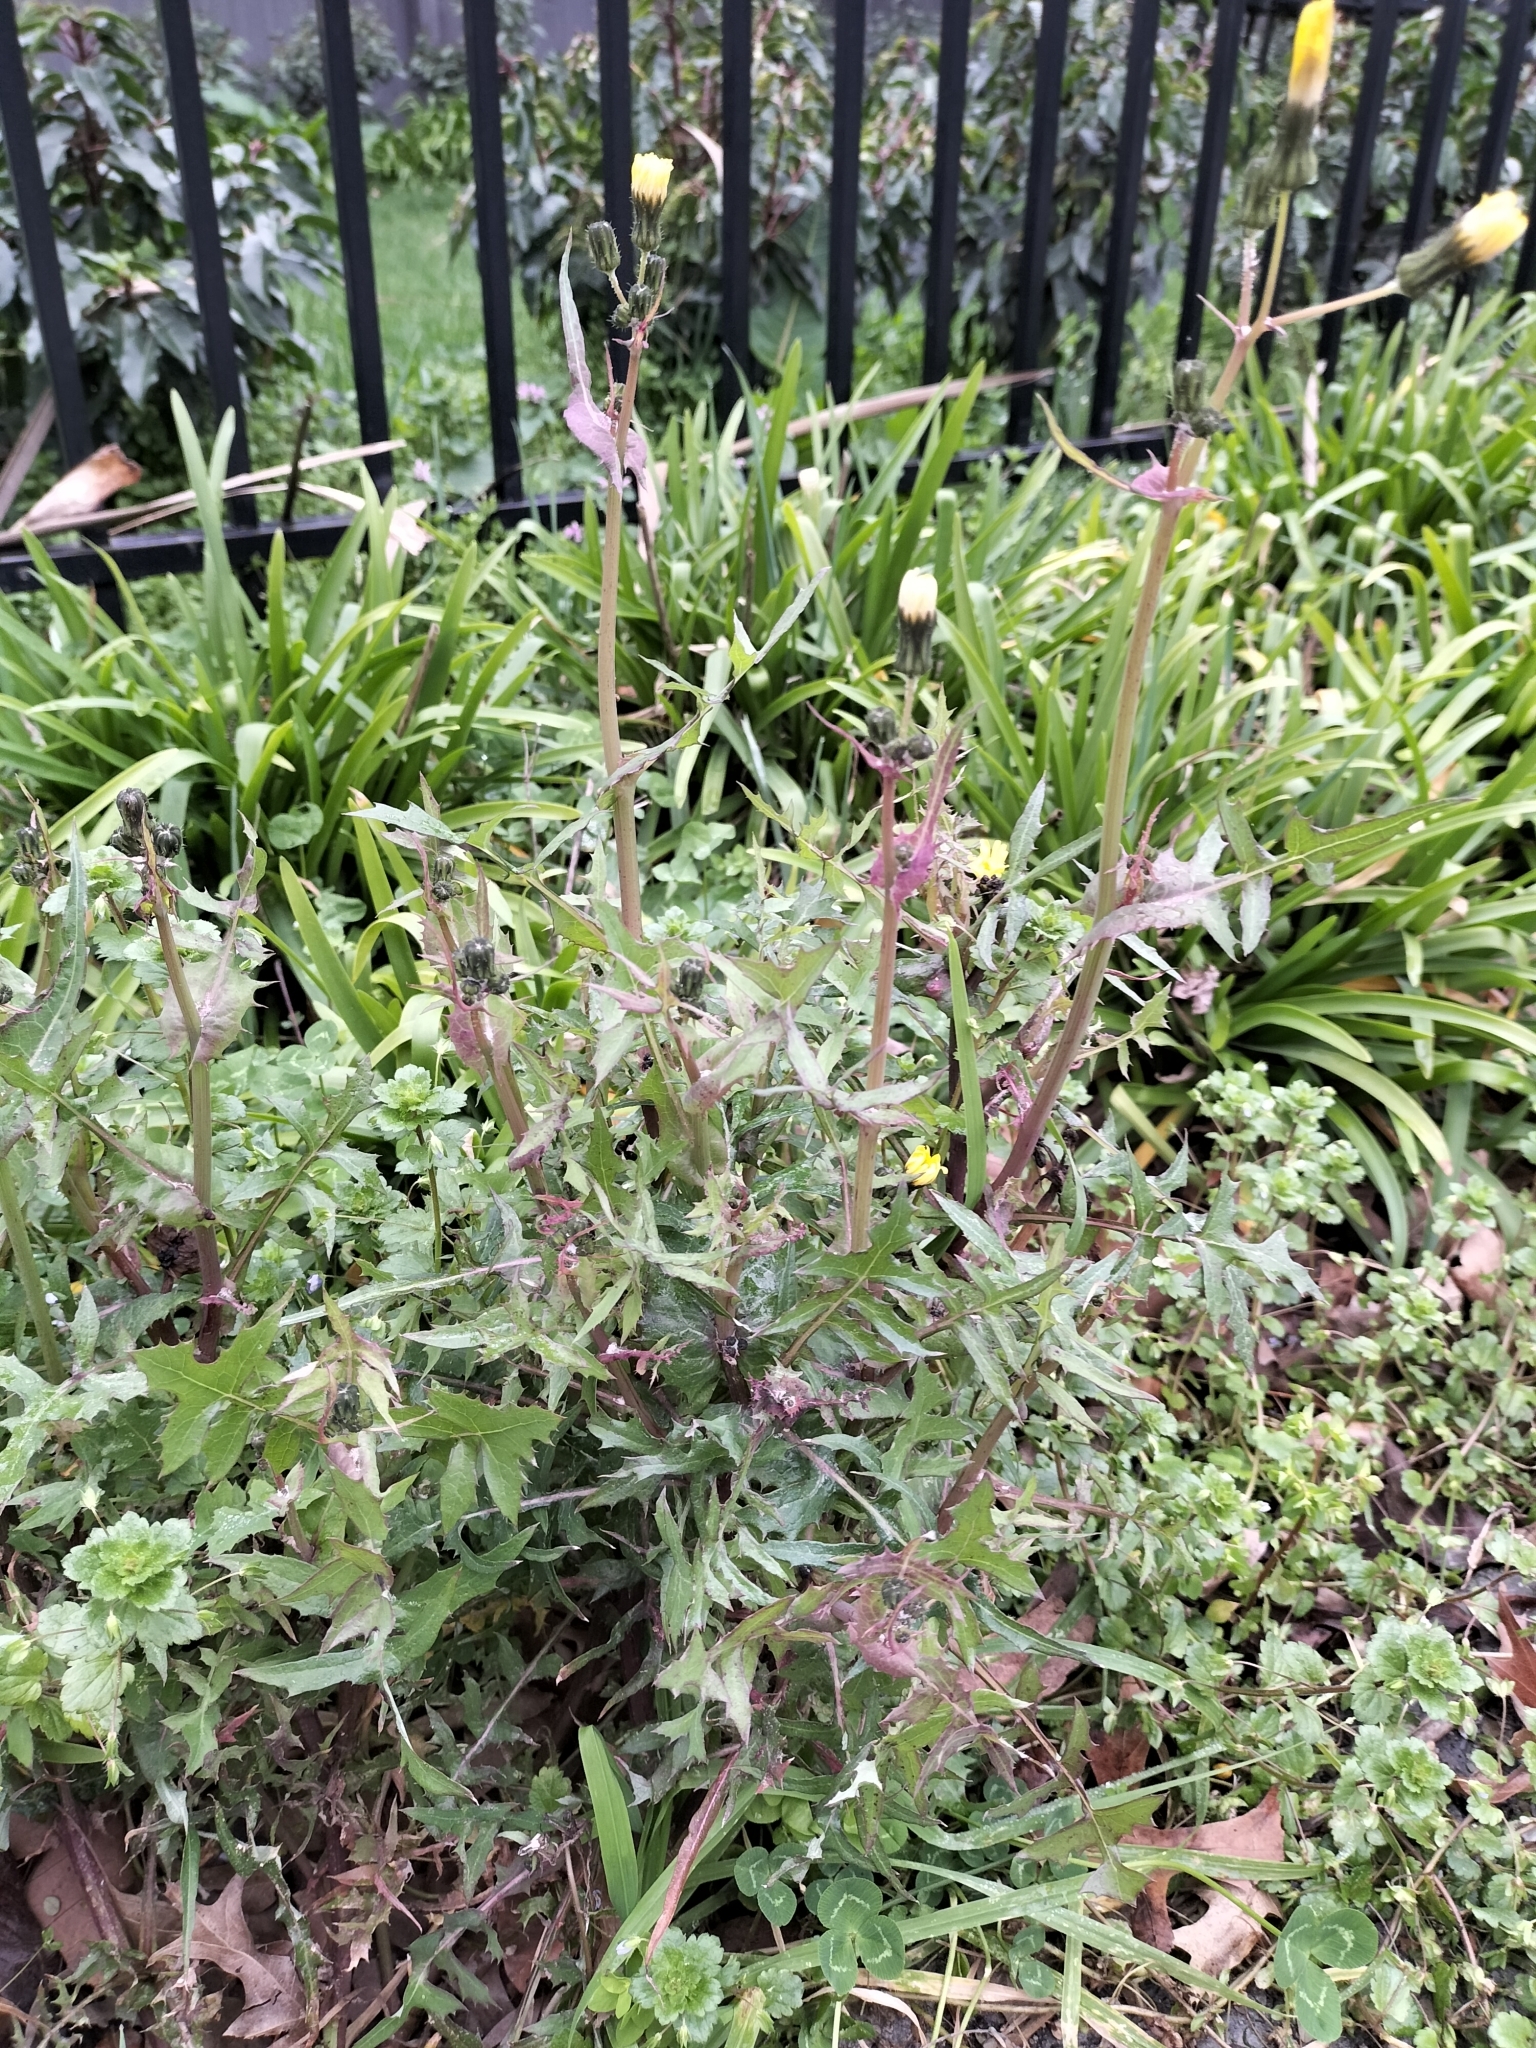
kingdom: Plantae
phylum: Tracheophyta
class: Magnoliopsida
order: Asterales
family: Asteraceae
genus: Sonchus
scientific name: Sonchus oleraceus
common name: Common sowthistle
